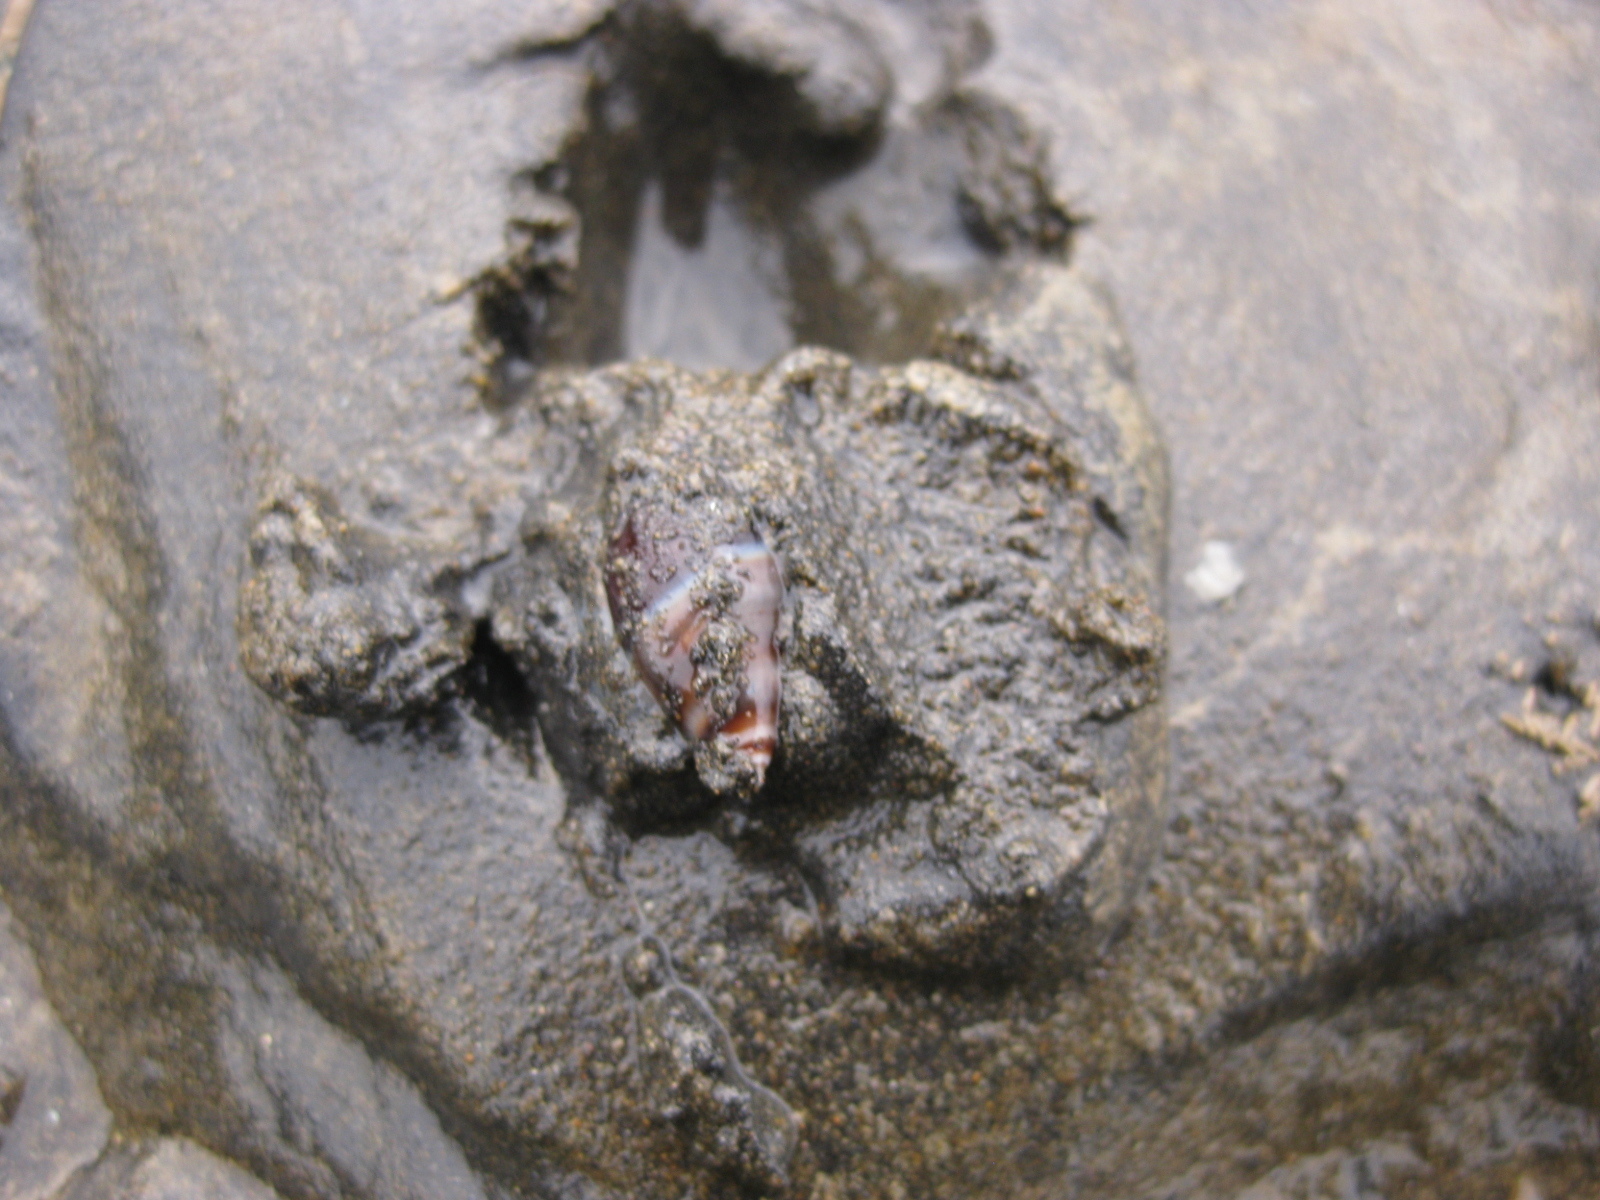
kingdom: Animalia
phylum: Mollusca
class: Gastropoda
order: Neogastropoda
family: Ancillariidae
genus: Amalda
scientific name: Amalda australis
